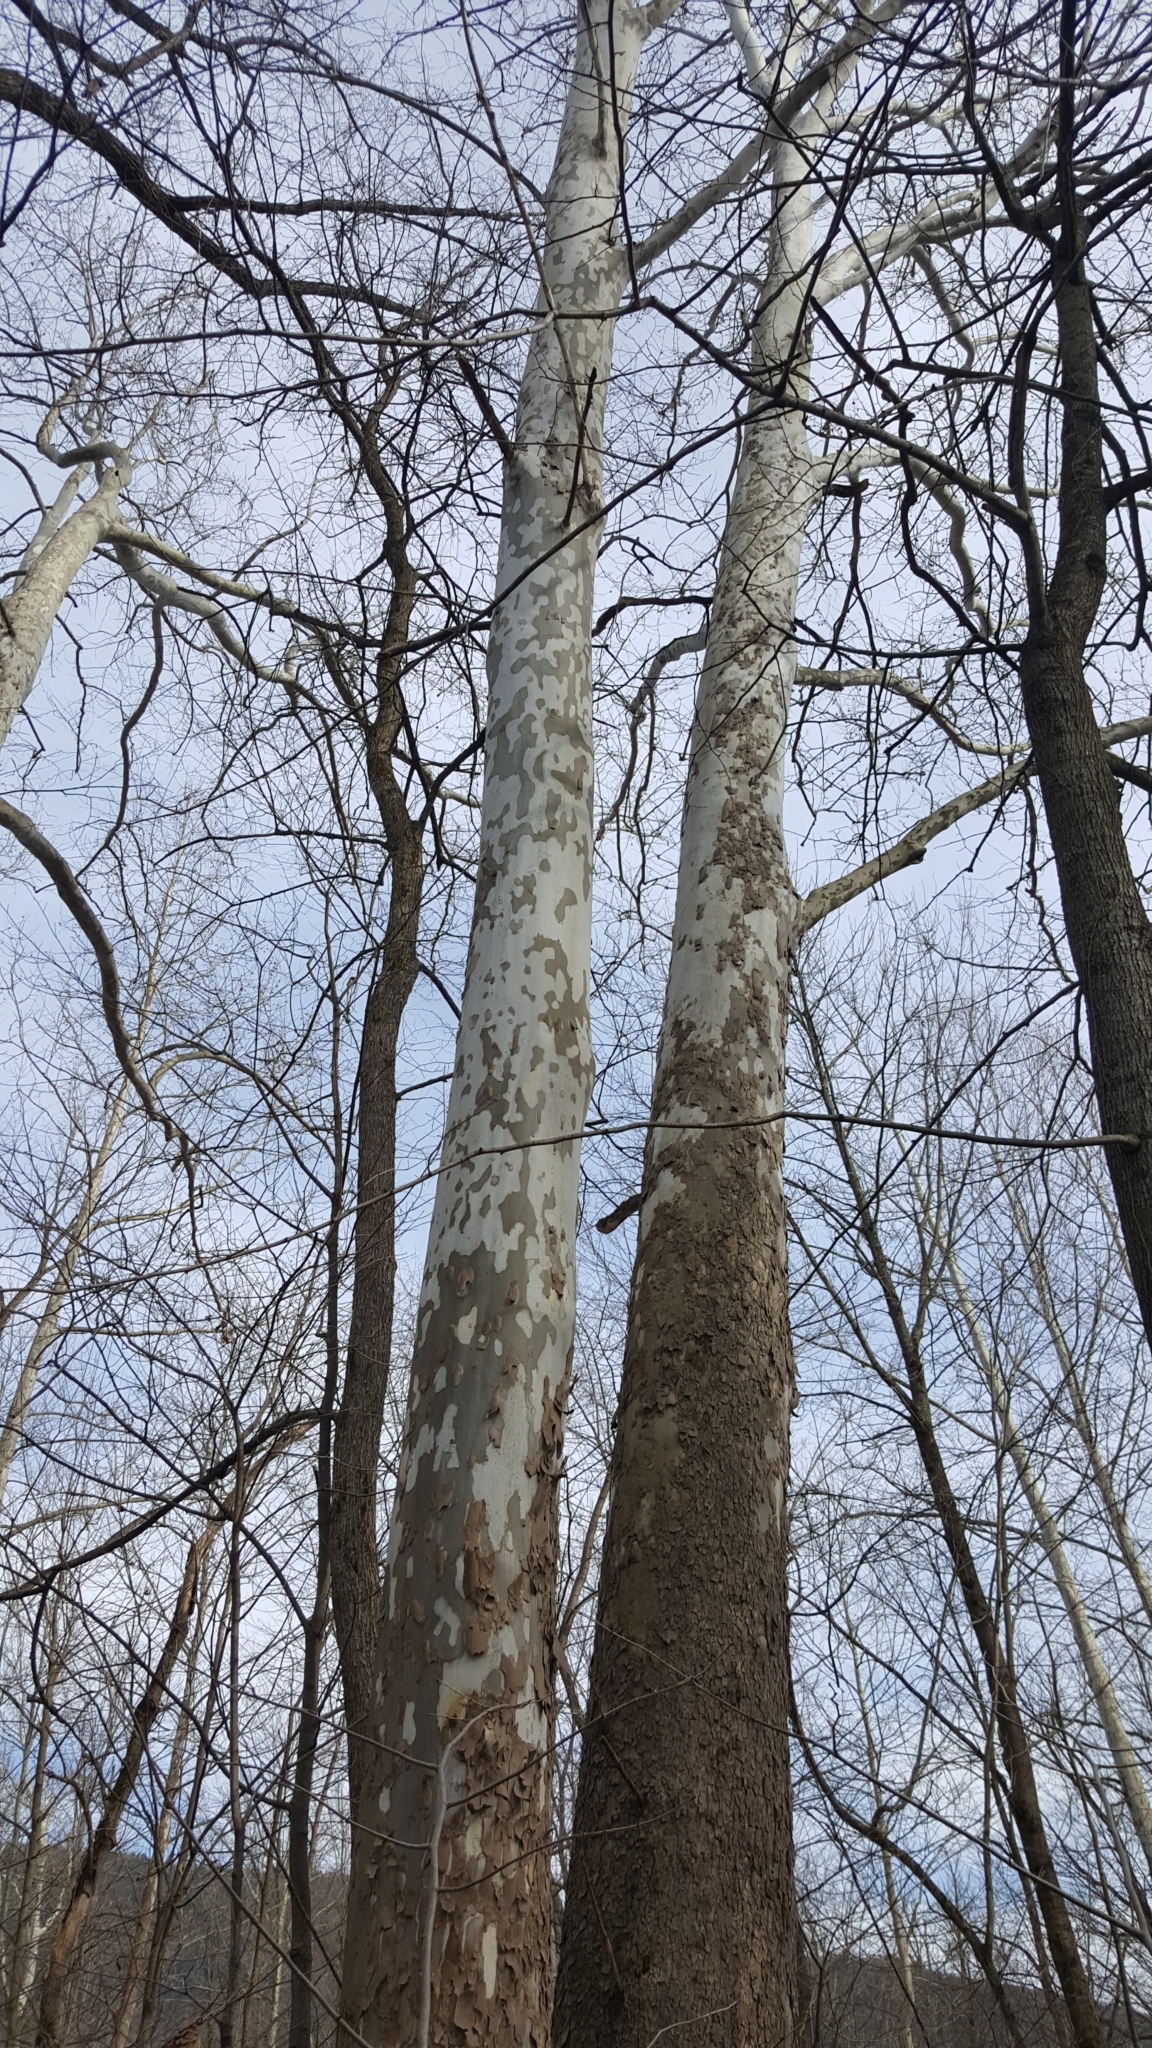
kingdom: Plantae
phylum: Tracheophyta
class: Magnoliopsida
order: Proteales
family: Platanaceae
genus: Platanus
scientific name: Platanus occidentalis
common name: American sycamore
